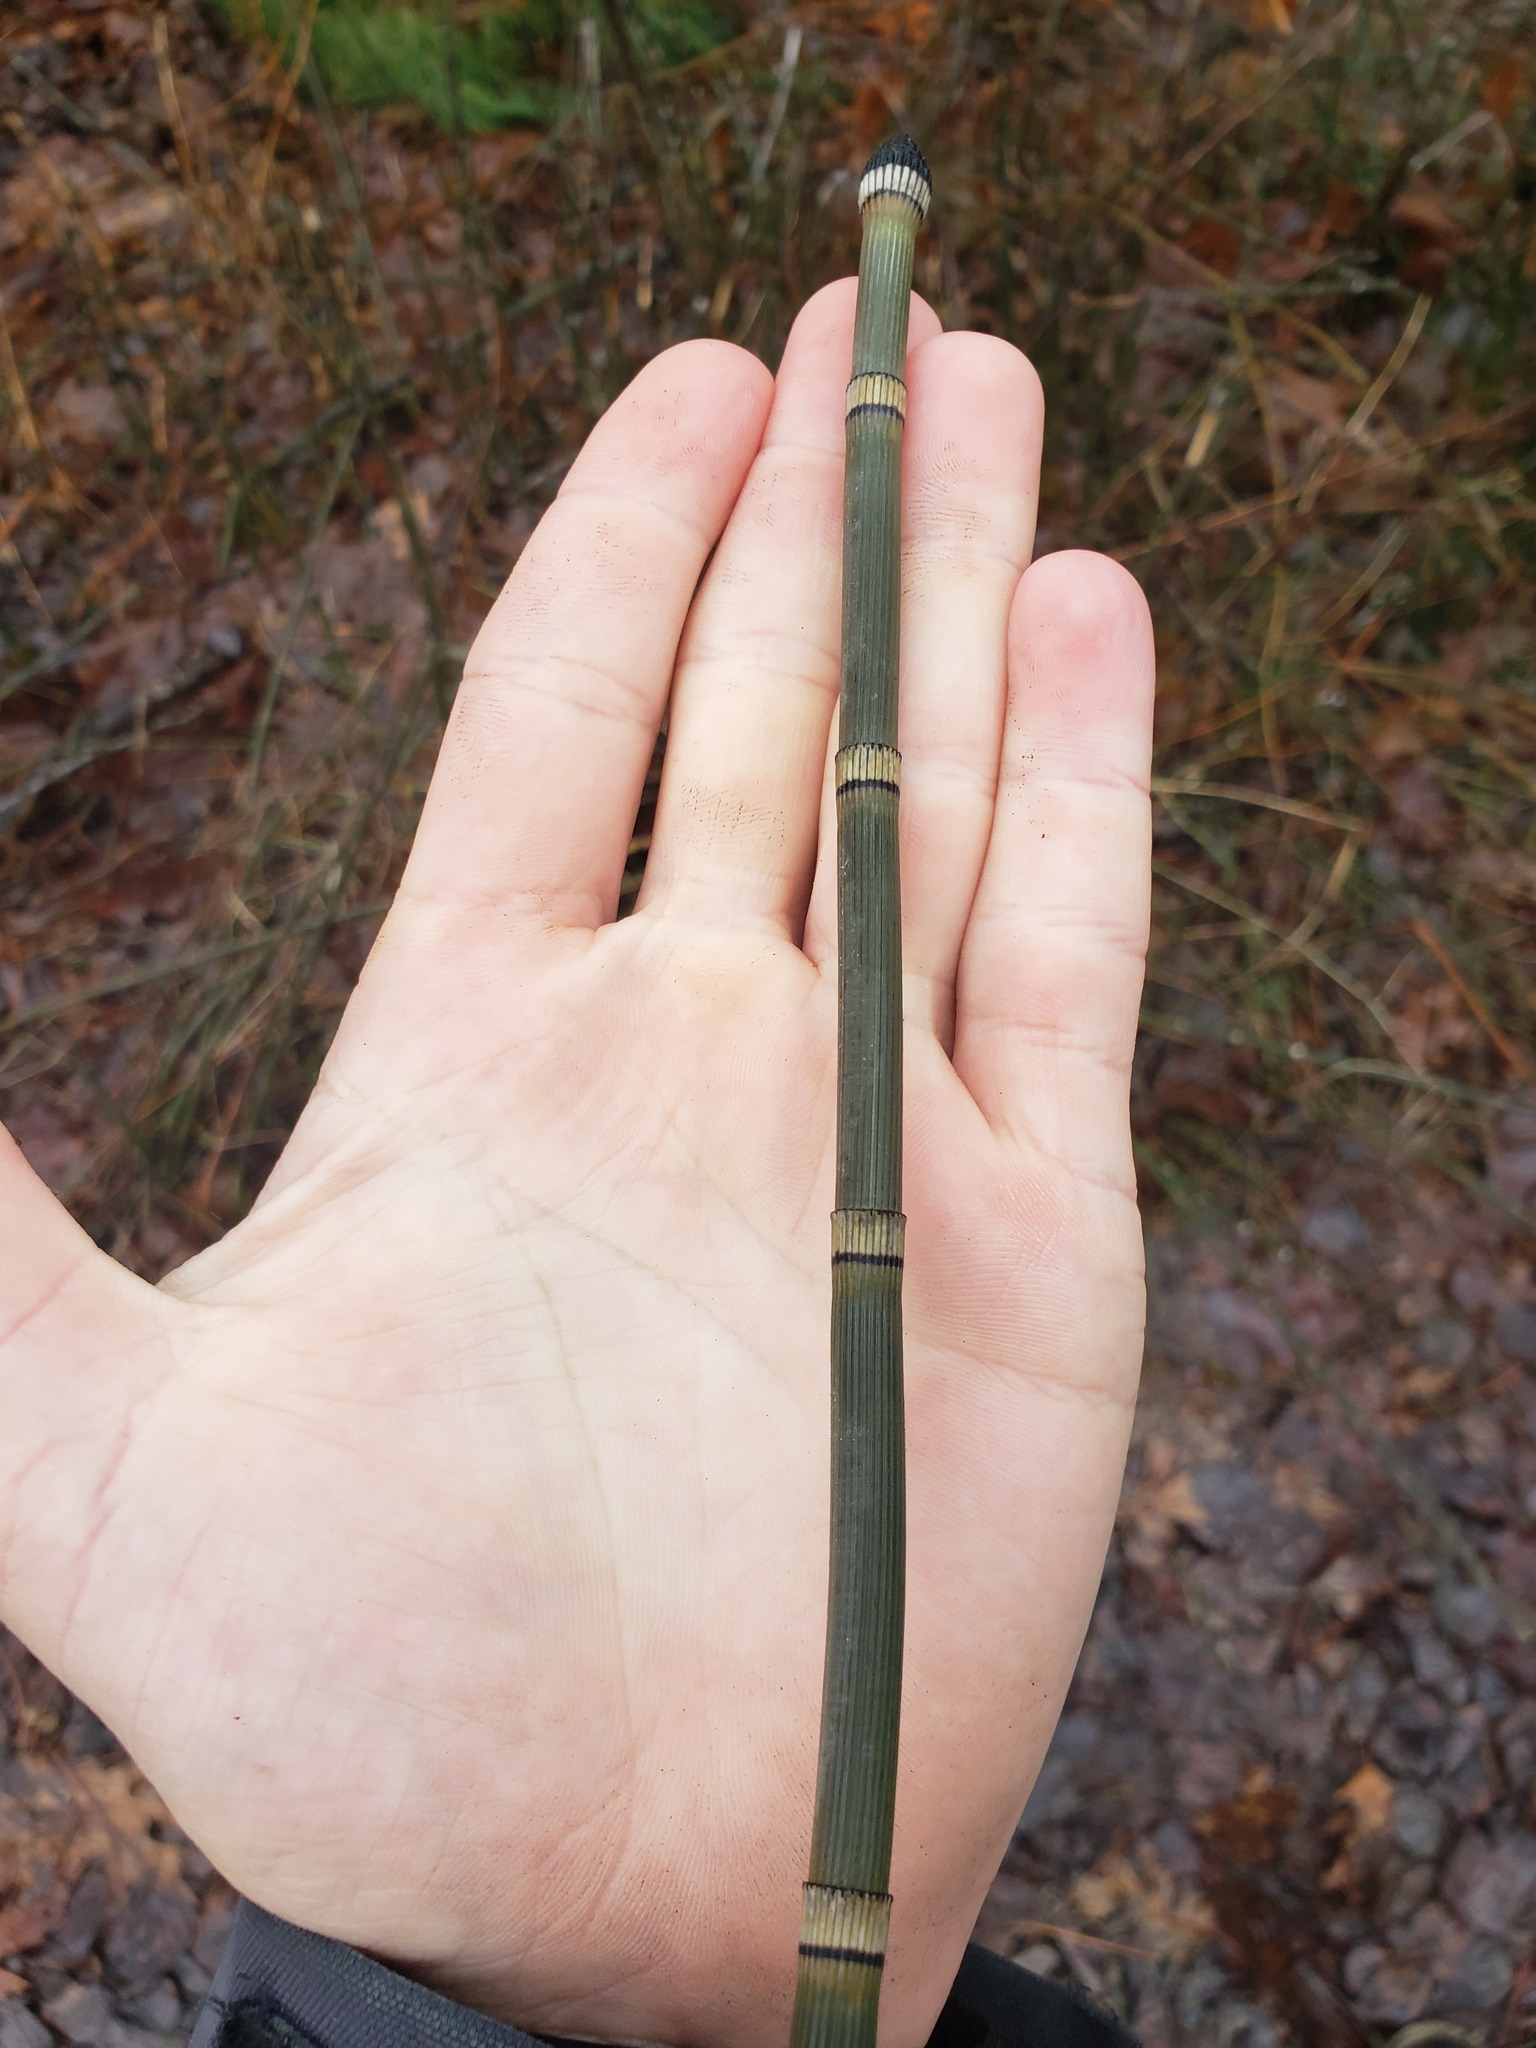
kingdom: Plantae
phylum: Tracheophyta
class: Polypodiopsida
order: Equisetales
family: Equisetaceae
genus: Equisetum
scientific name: Equisetum hyemale
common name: Rough horsetail
